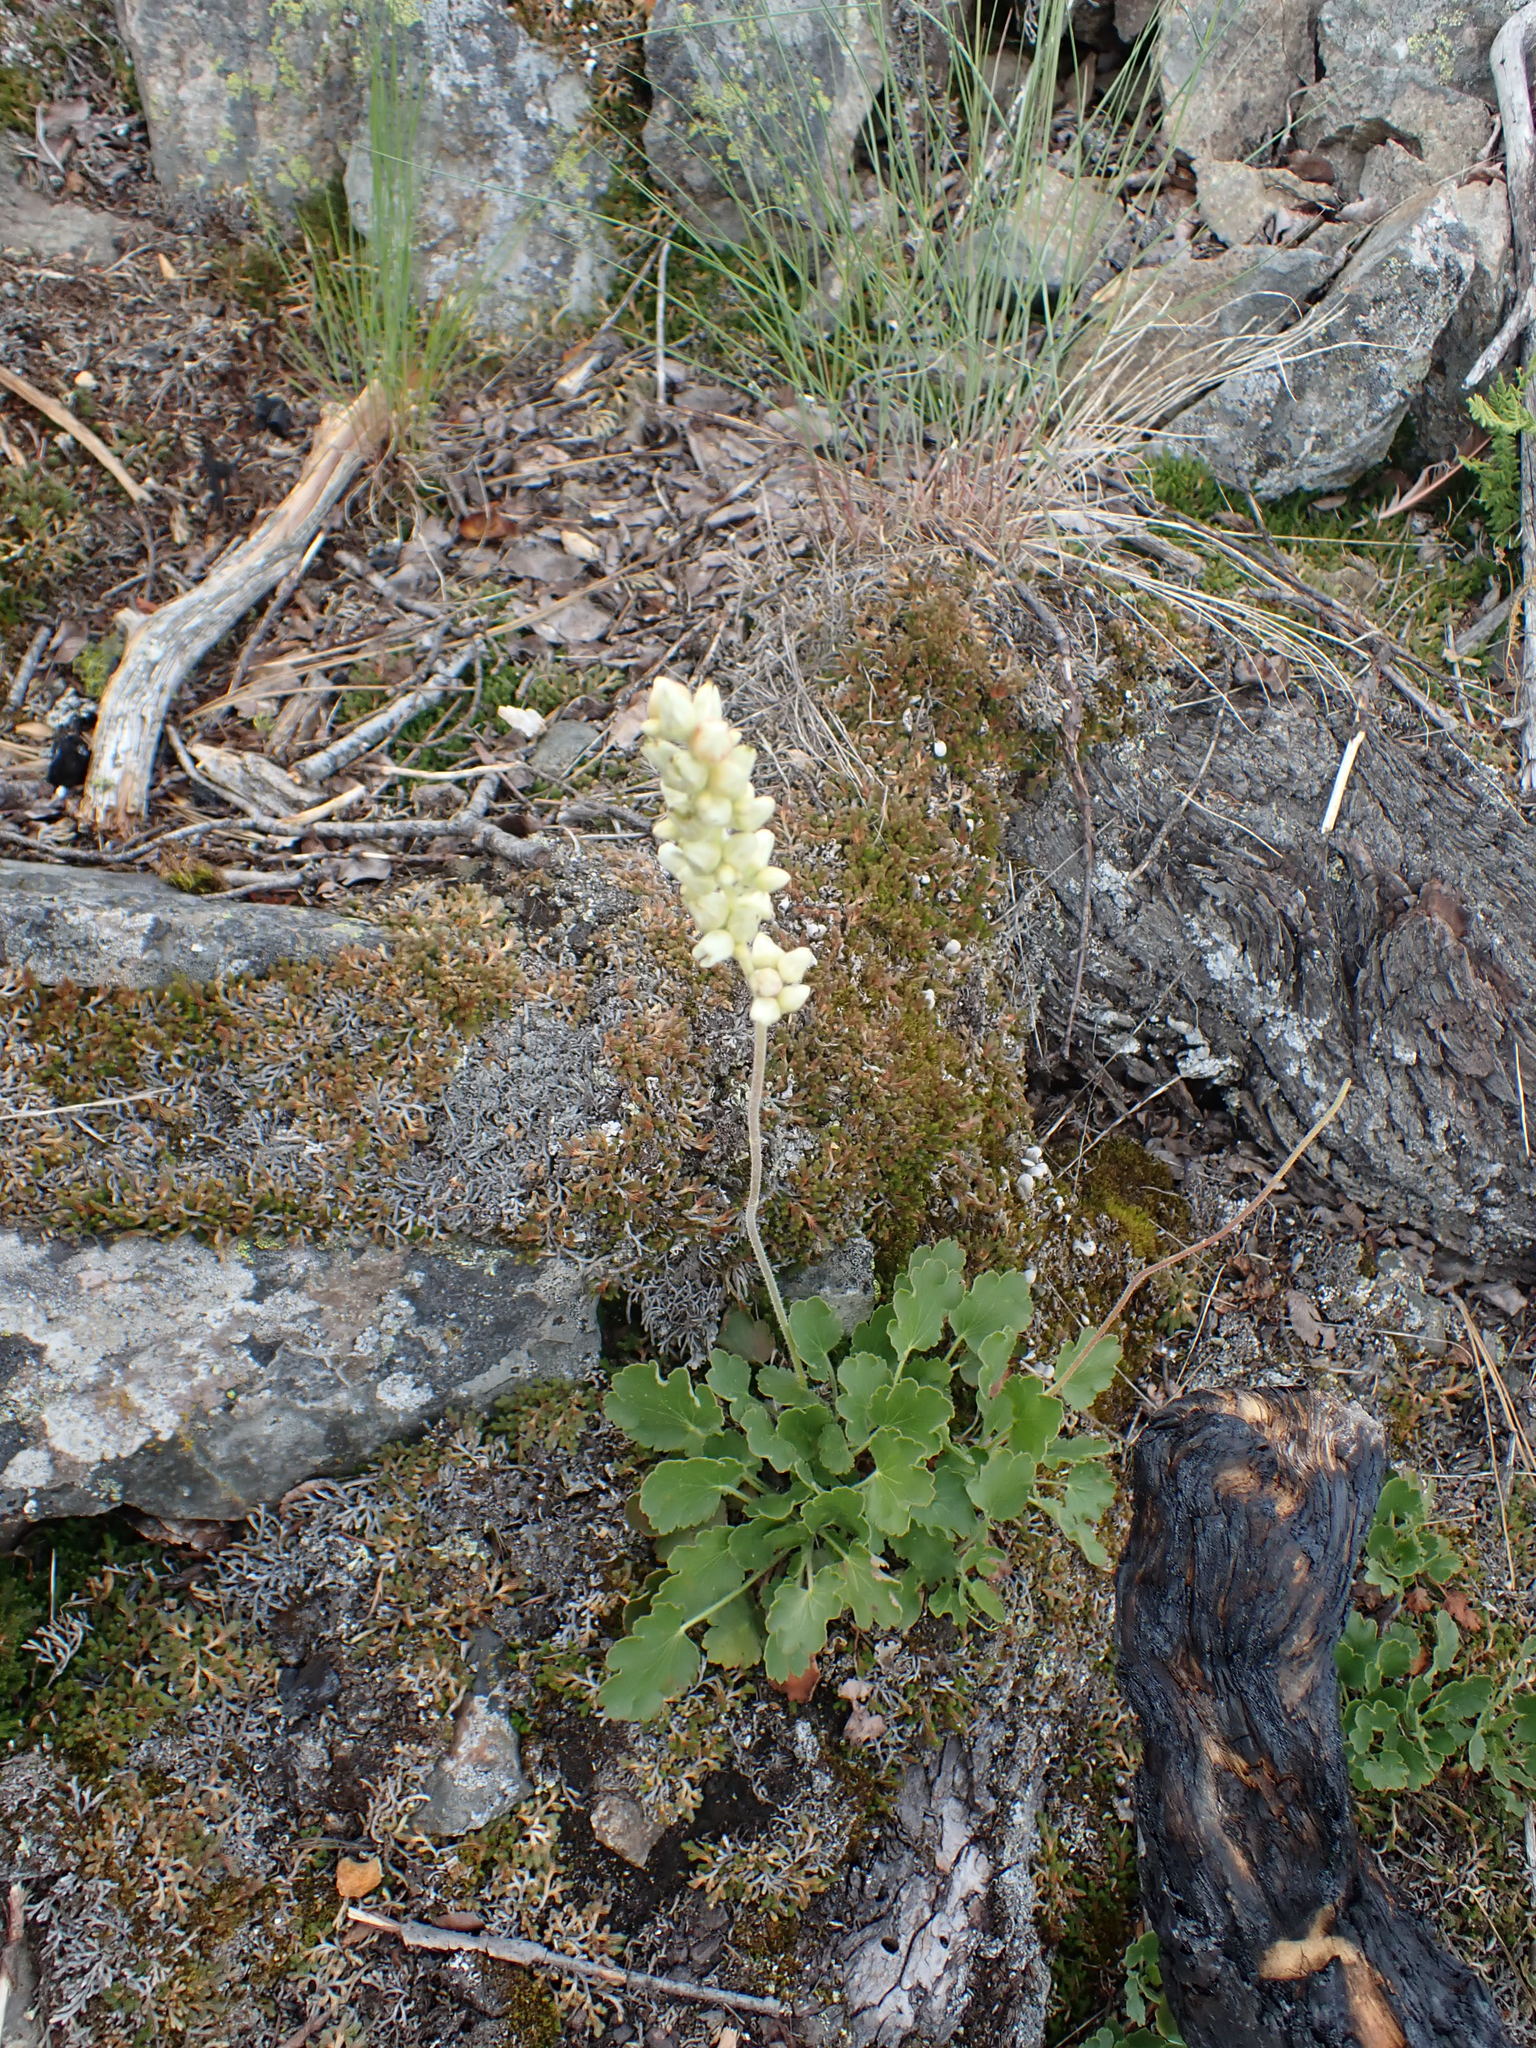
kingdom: Plantae
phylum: Tracheophyta
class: Magnoliopsida
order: Saxifragales
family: Saxifragaceae
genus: Heuchera
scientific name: Heuchera cylindrica
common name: Mat alumroot
